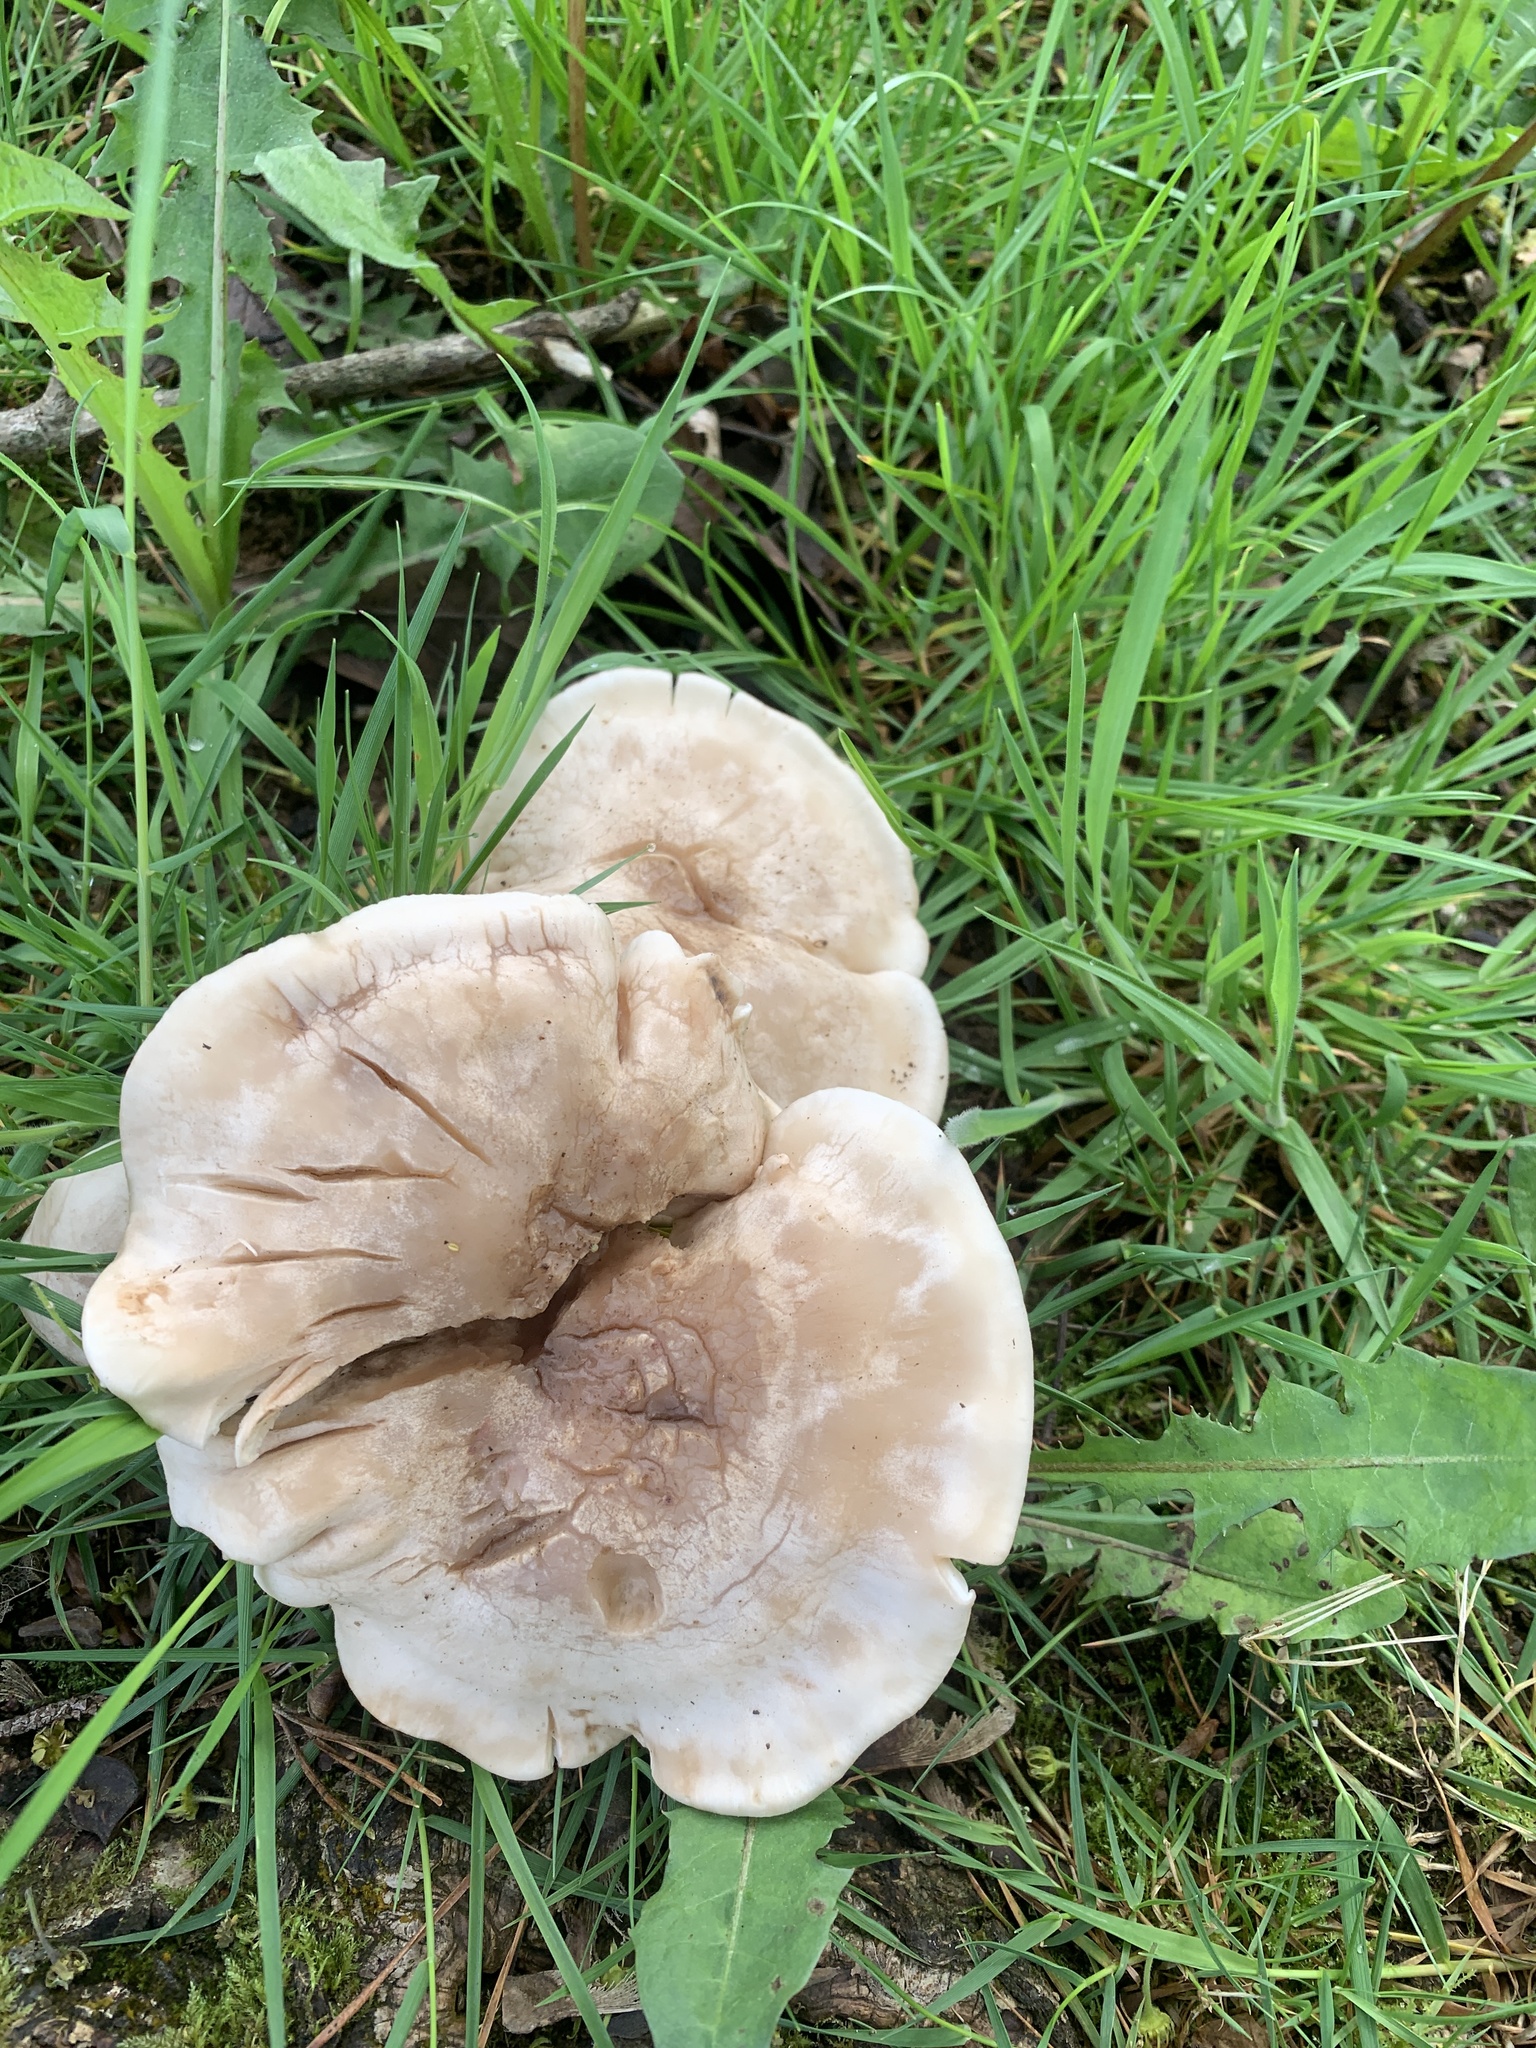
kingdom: Fungi
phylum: Basidiomycota
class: Agaricomycetes
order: Agaricales
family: Tricholomataceae
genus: Clitocybe
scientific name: Clitocybe nebularis
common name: Clouded agaric
